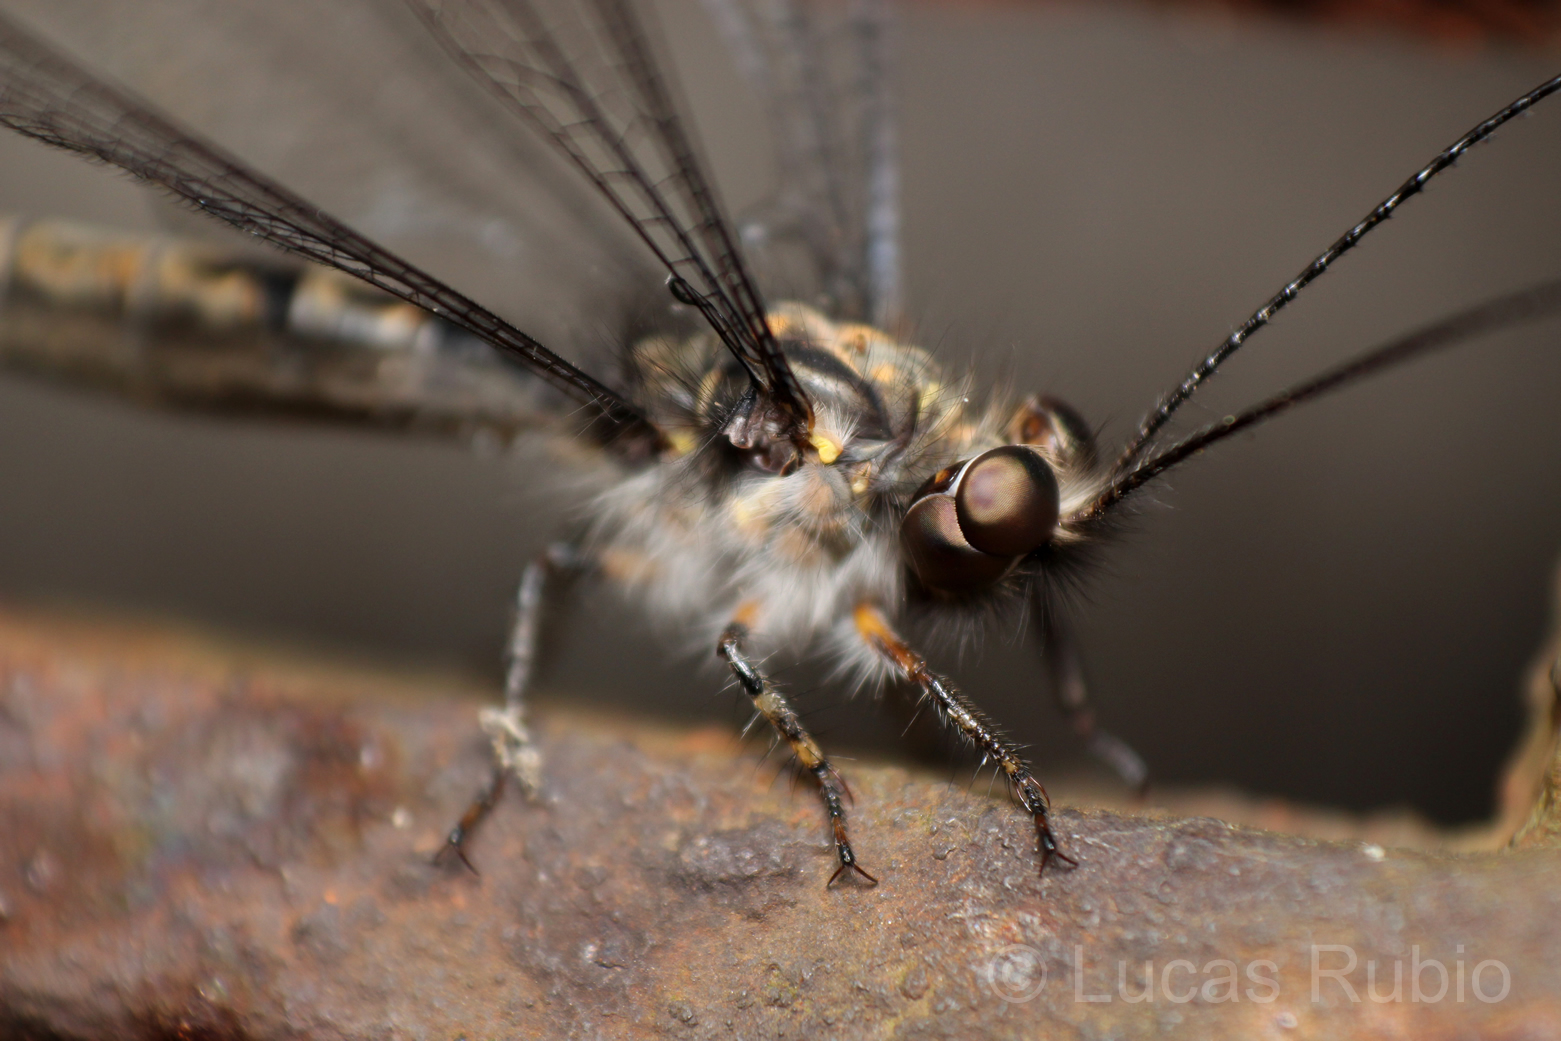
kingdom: Animalia
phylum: Arthropoda
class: Insecta
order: Neuroptera
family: Ascalaphidae
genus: Ascalorphne
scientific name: Ascalorphne macrocerca
